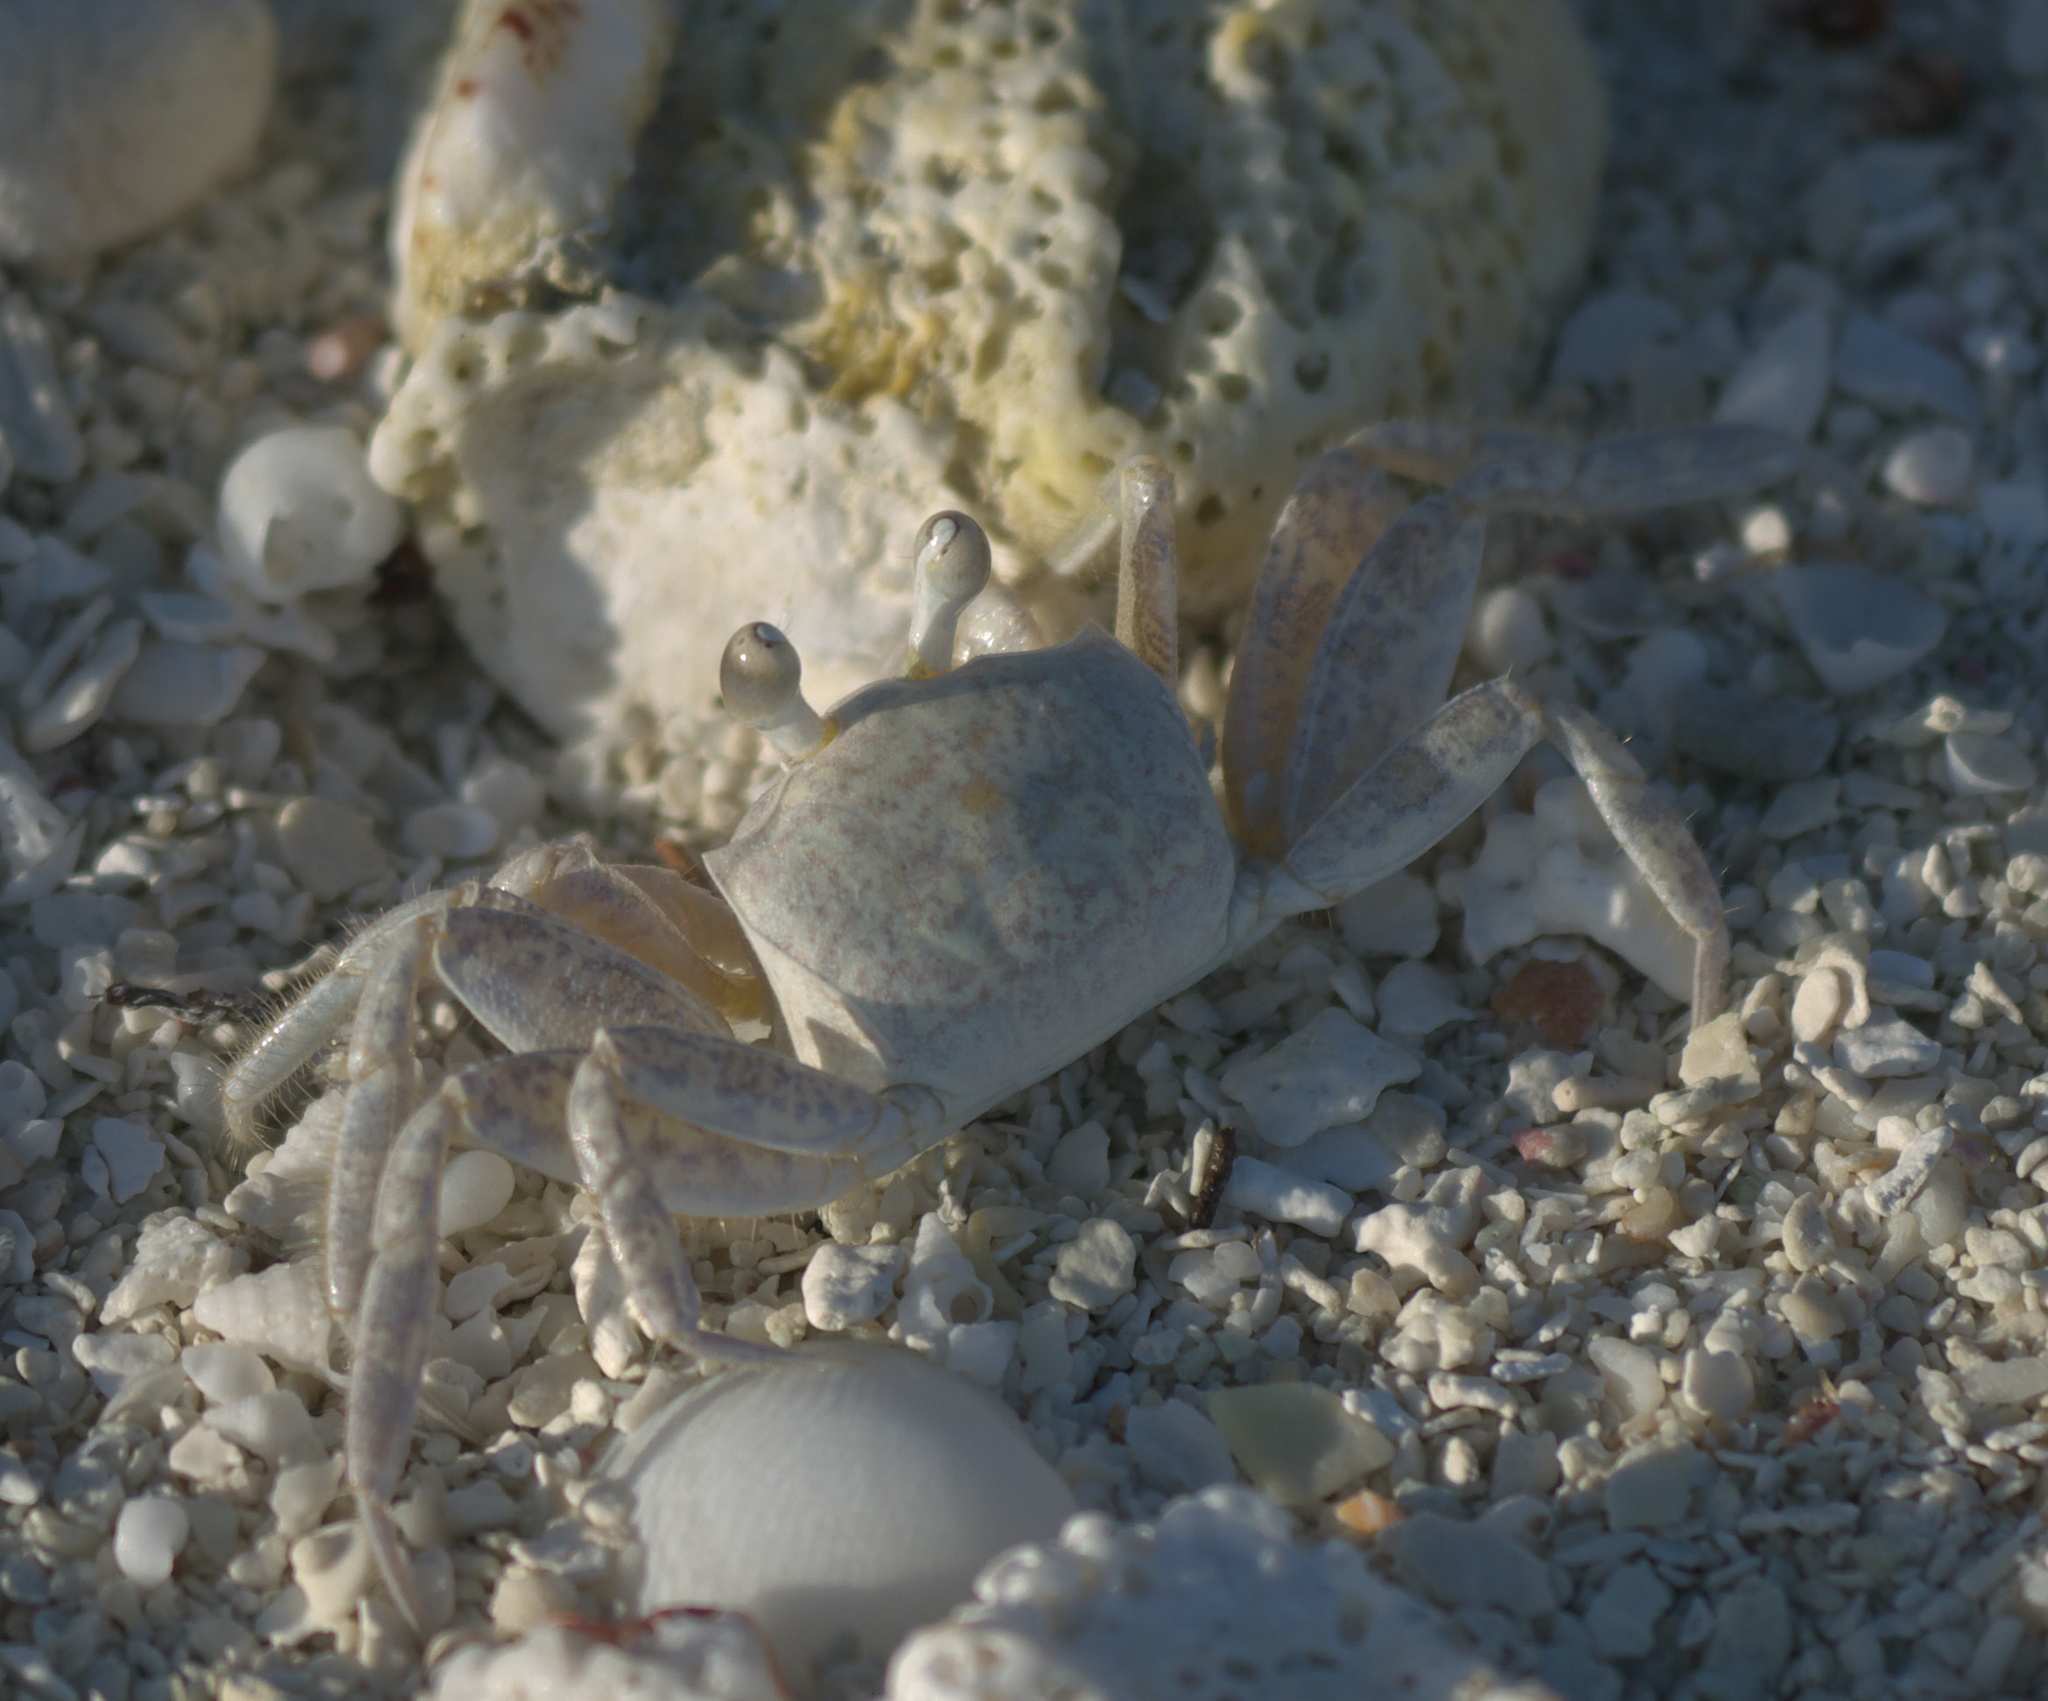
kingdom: Animalia
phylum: Arthropoda
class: Malacostraca
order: Decapoda
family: Ocypodidae
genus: Ocypode
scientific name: Ocypode quadrata
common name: Ghost crab
